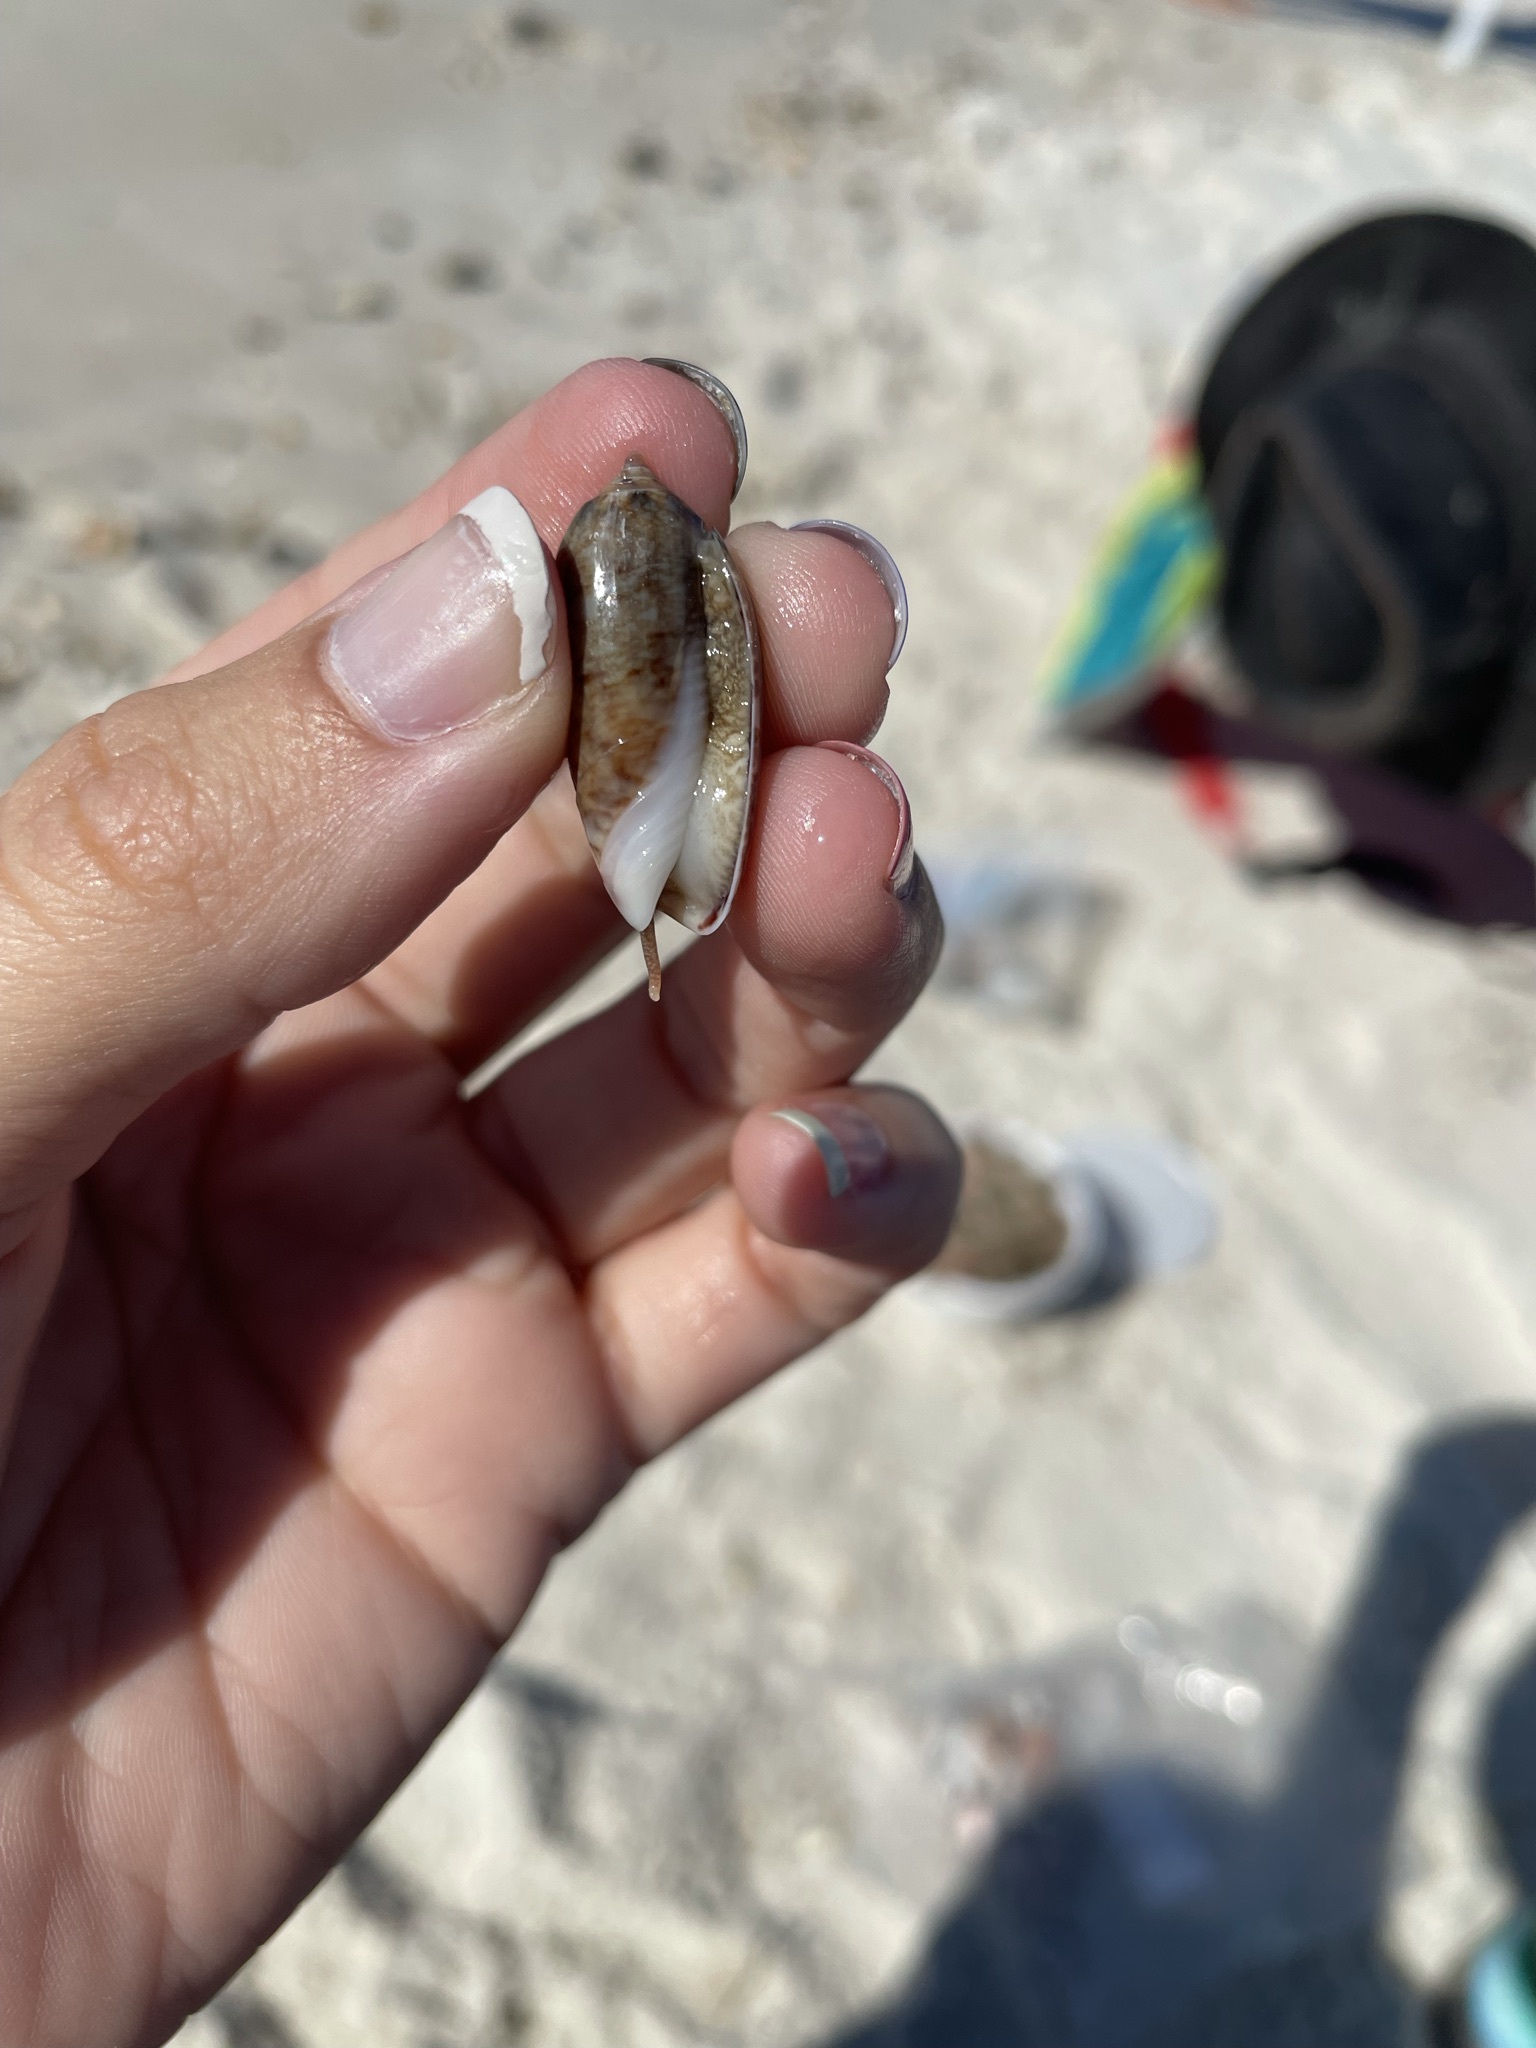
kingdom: Animalia
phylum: Mollusca
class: Gastropoda
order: Neogastropoda
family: Olividae
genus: Oliva
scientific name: Oliva sayana
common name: Lettered olive
